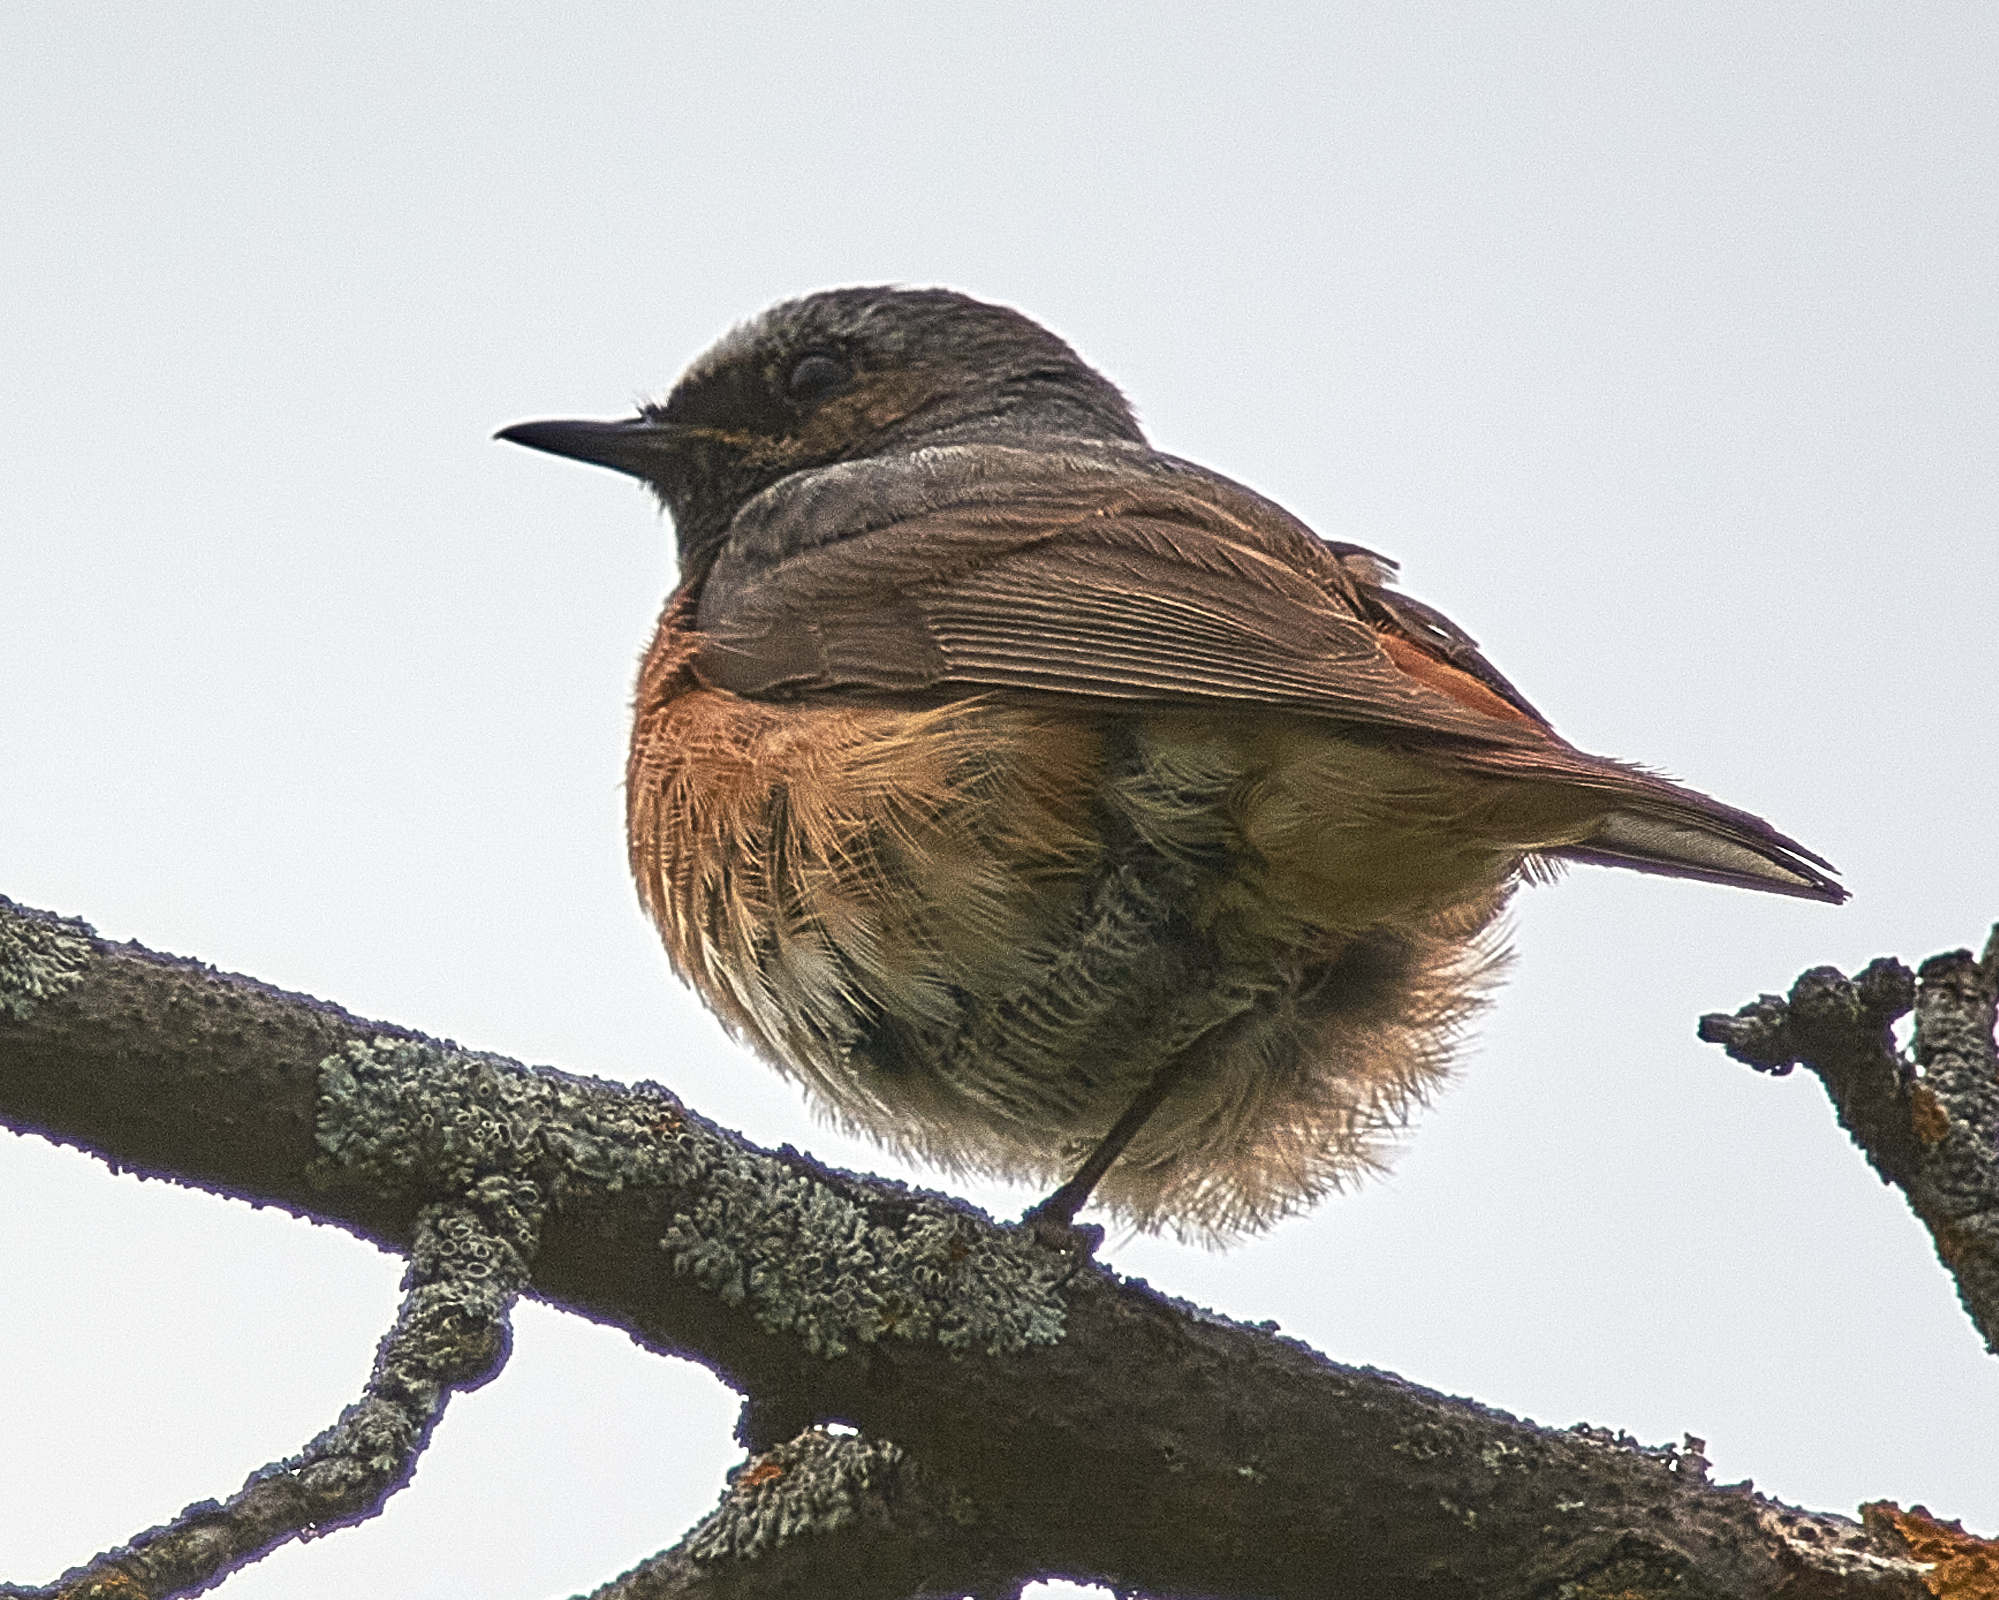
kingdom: Animalia
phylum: Chordata
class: Aves
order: Passeriformes
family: Muscicapidae
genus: Phoenicurus
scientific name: Phoenicurus phoenicurus
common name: Common redstart
